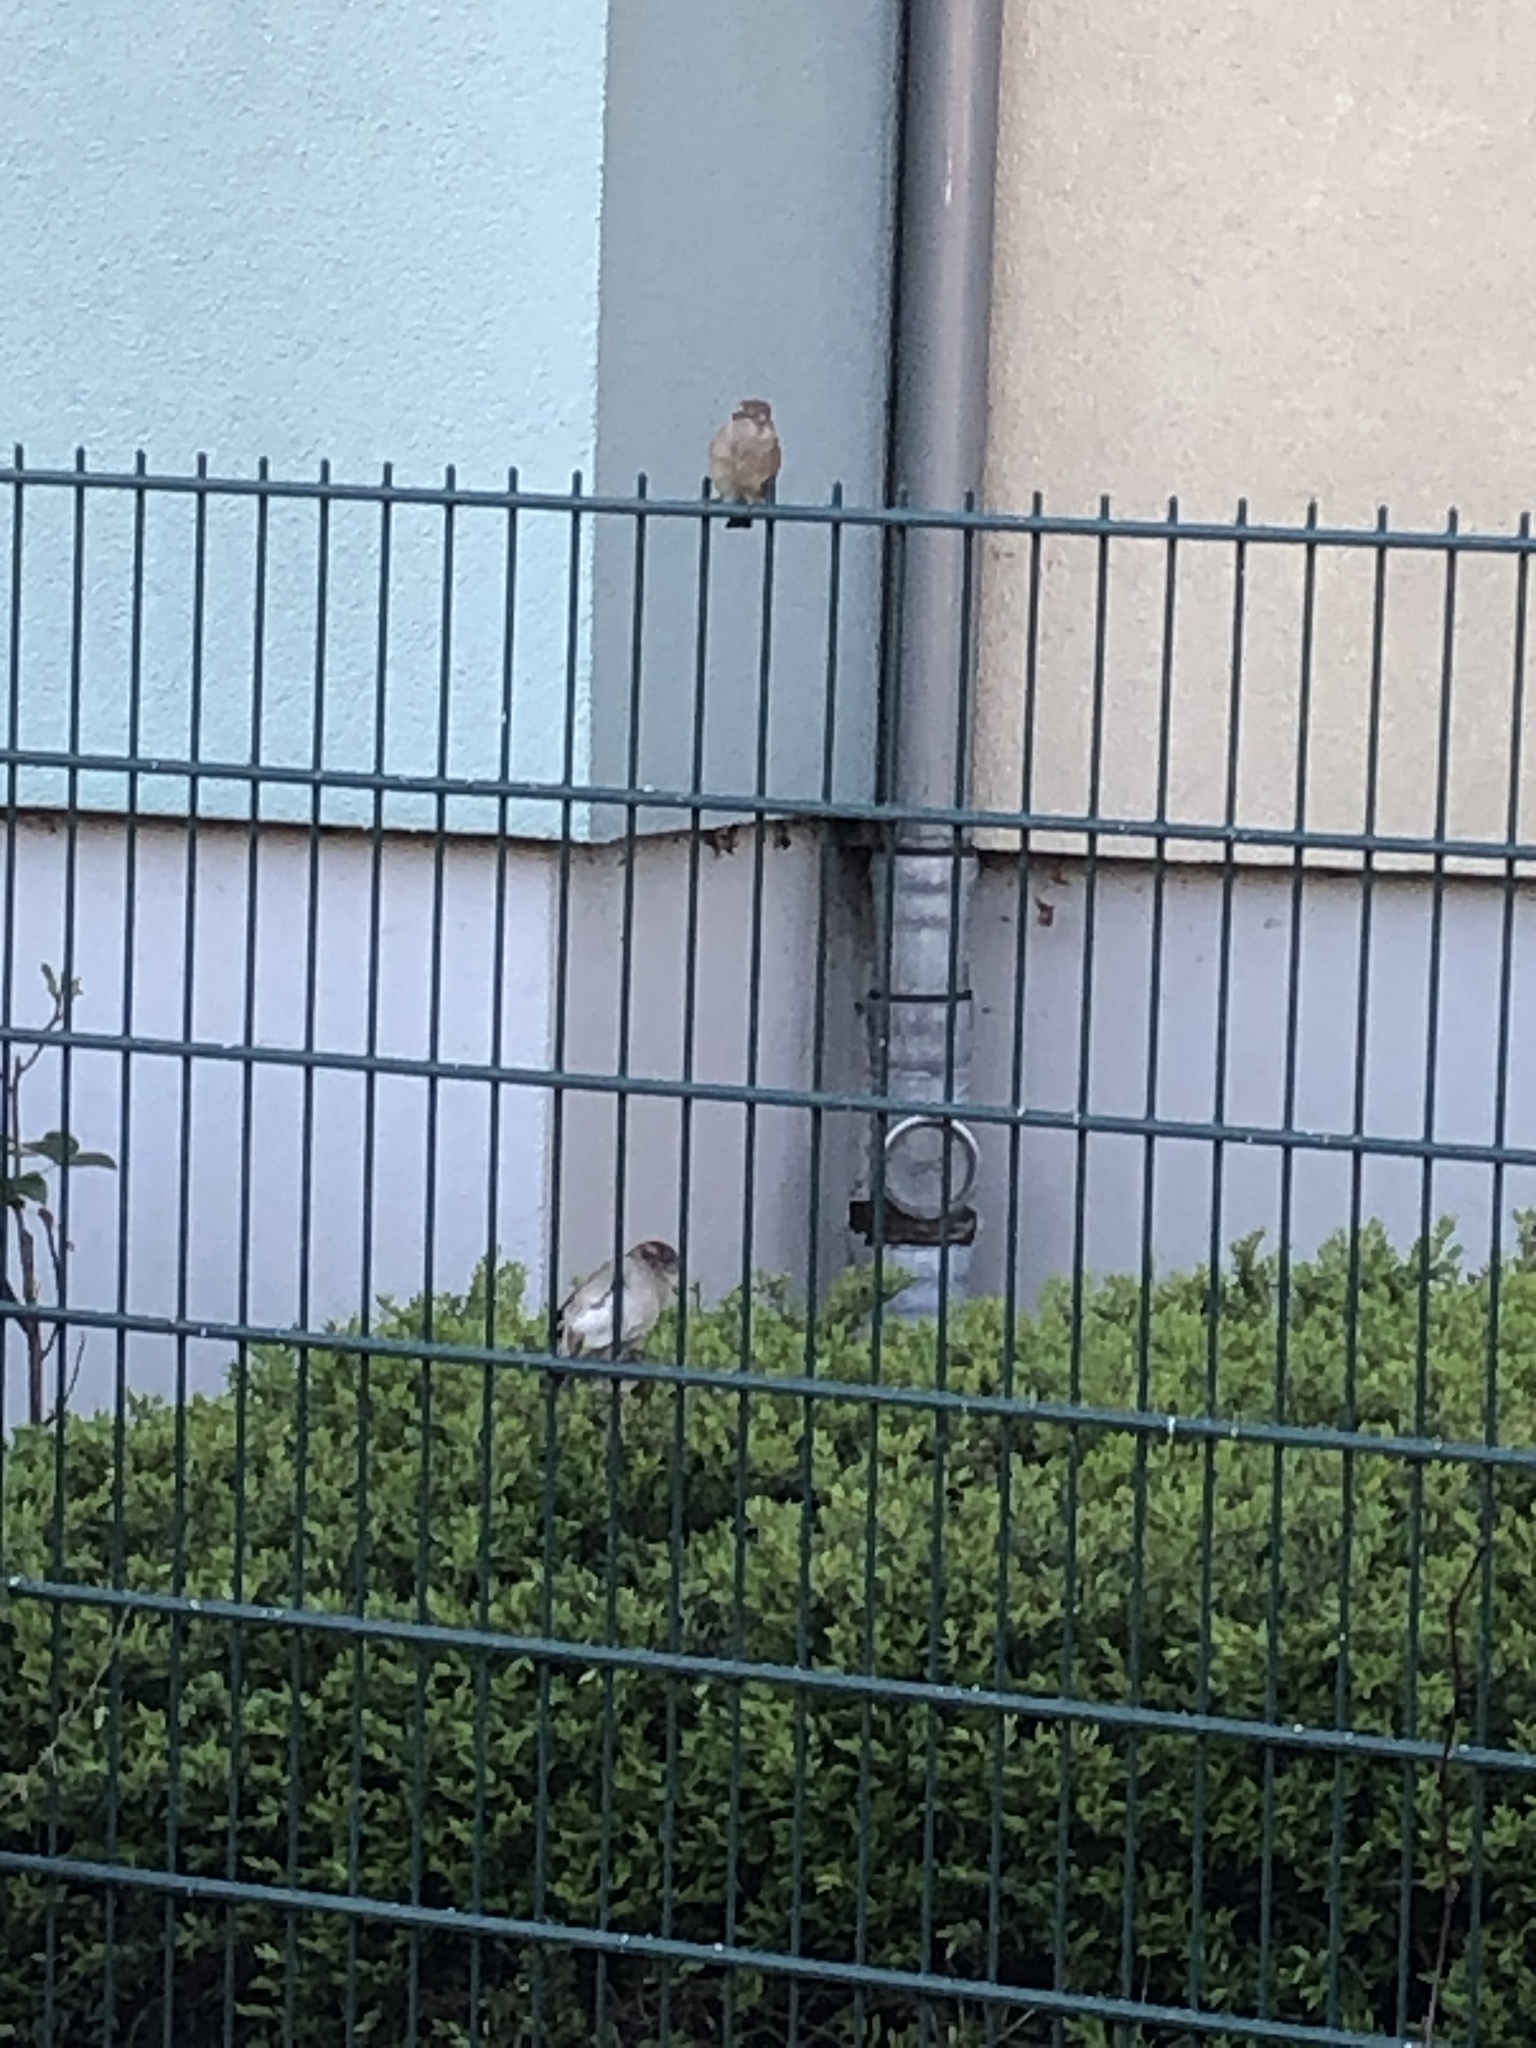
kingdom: Animalia
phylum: Chordata
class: Aves
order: Passeriformes
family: Passeridae
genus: Passer
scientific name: Passer domesticus
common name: House sparrow
